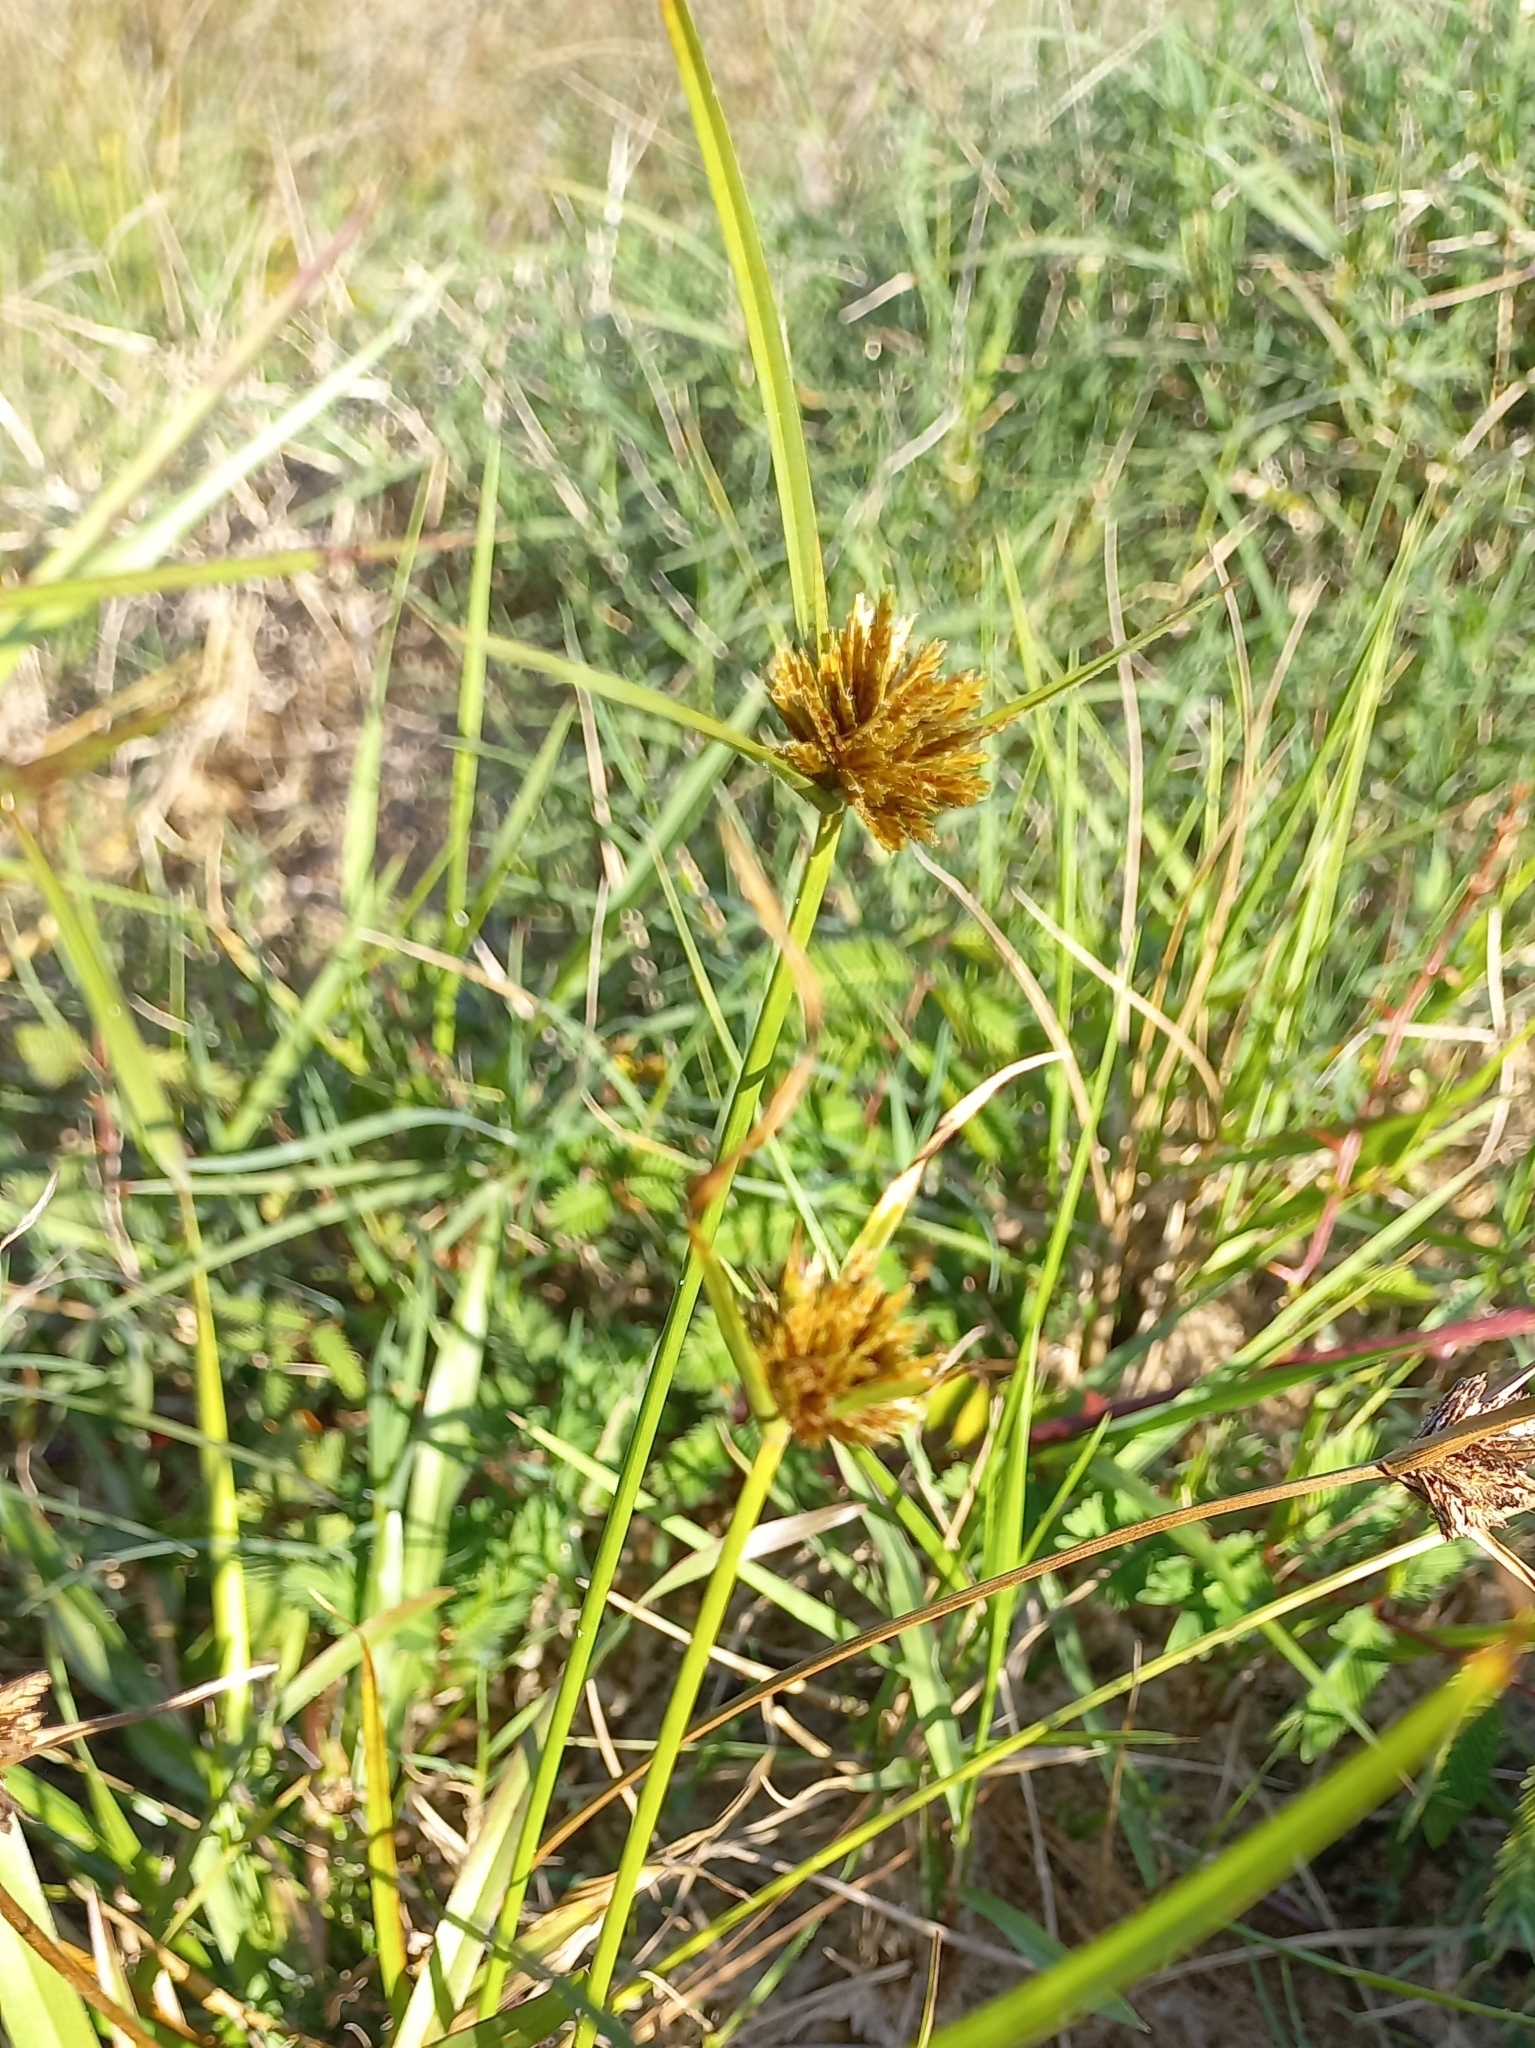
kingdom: Plantae
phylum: Tracheophyta
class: Liliopsida
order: Poales
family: Cyperaceae
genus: Cyperus
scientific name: Cyperus polystachyos
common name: Bunchy flat sedge
